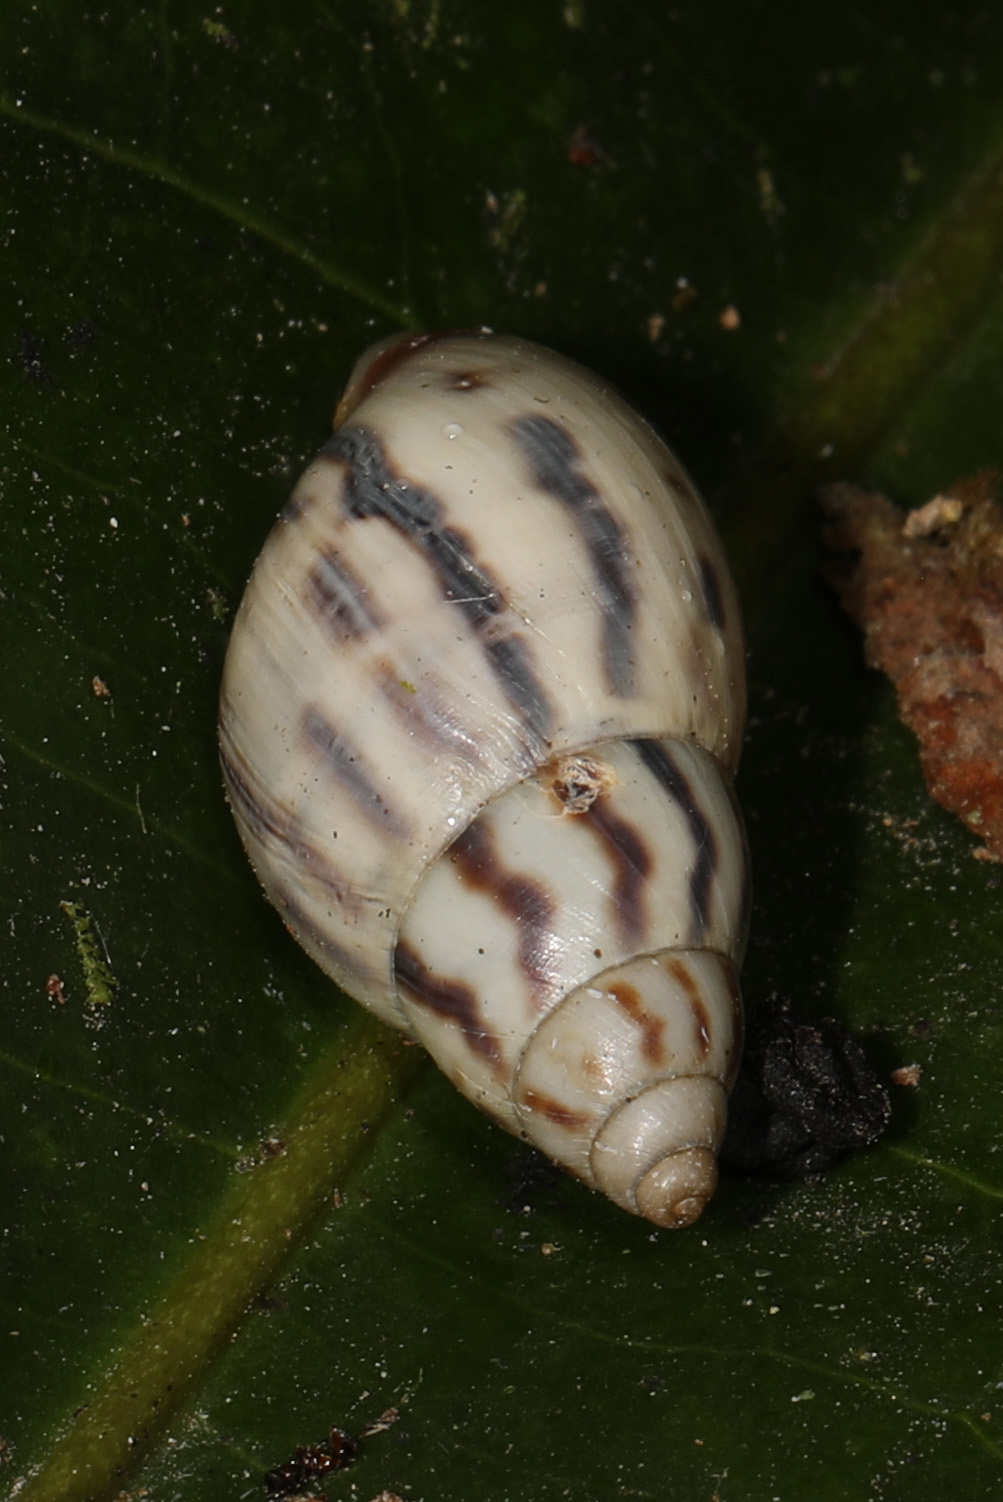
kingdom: Animalia
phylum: Mollusca
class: Gastropoda
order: Stylommatophora
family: Bulimulidae
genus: Drymaeus
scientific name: Drymaeus aequatorianus
